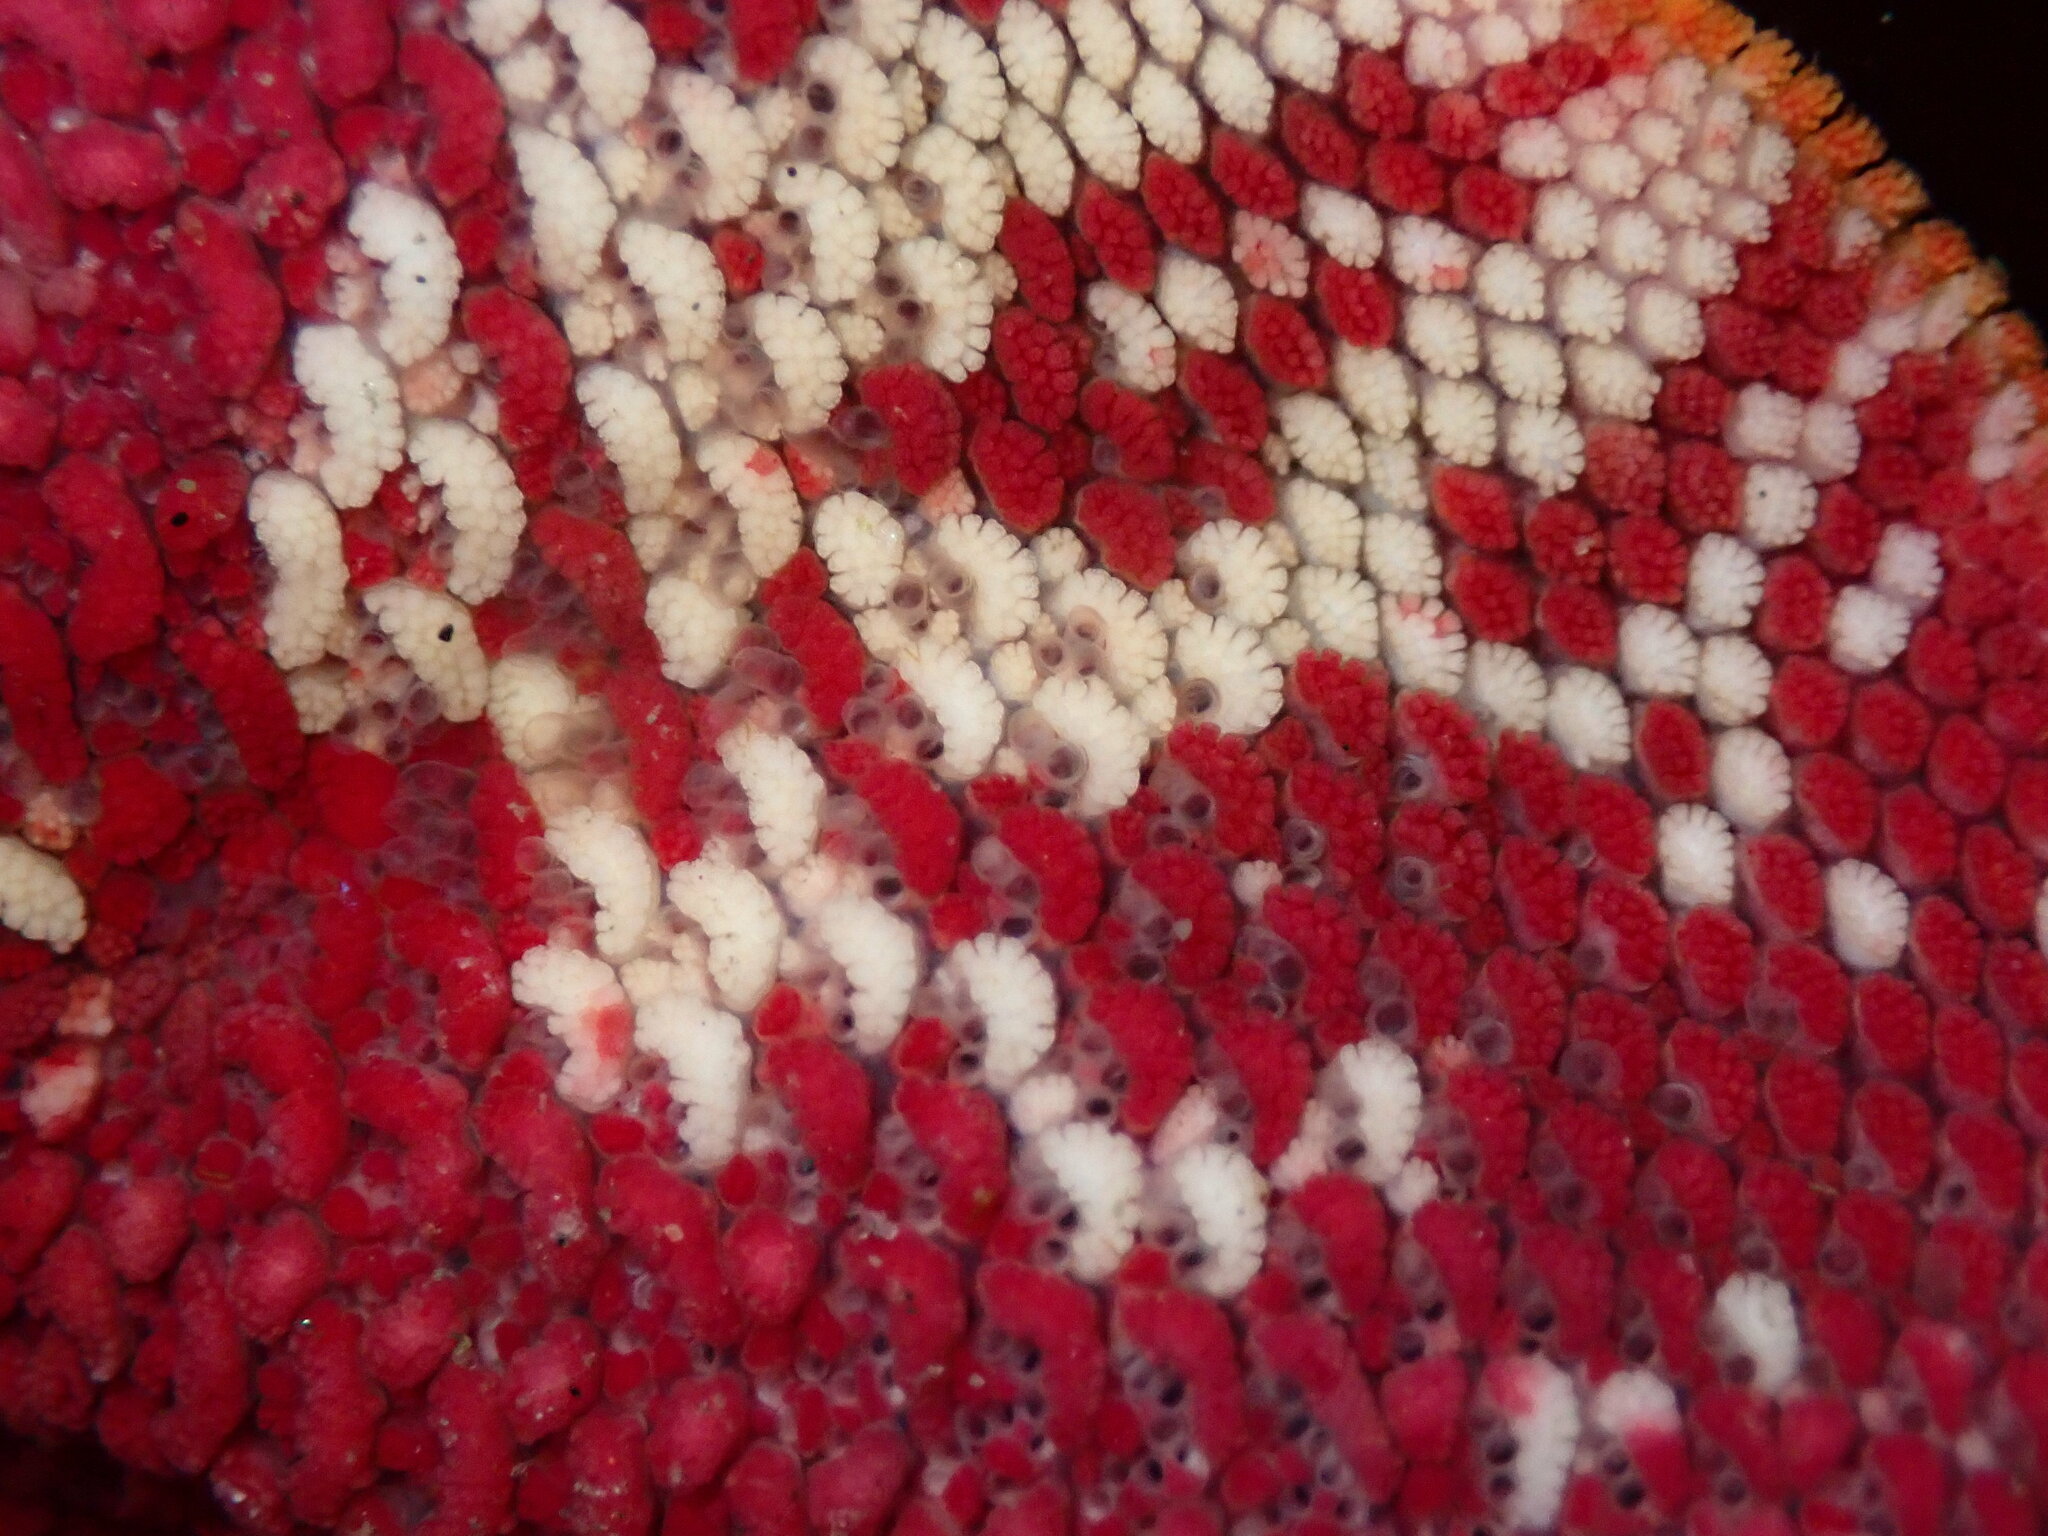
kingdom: Animalia
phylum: Echinodermata
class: Asteroidea
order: Valvatida
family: Asterinidae
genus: Patiria
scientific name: Patiria miniata
